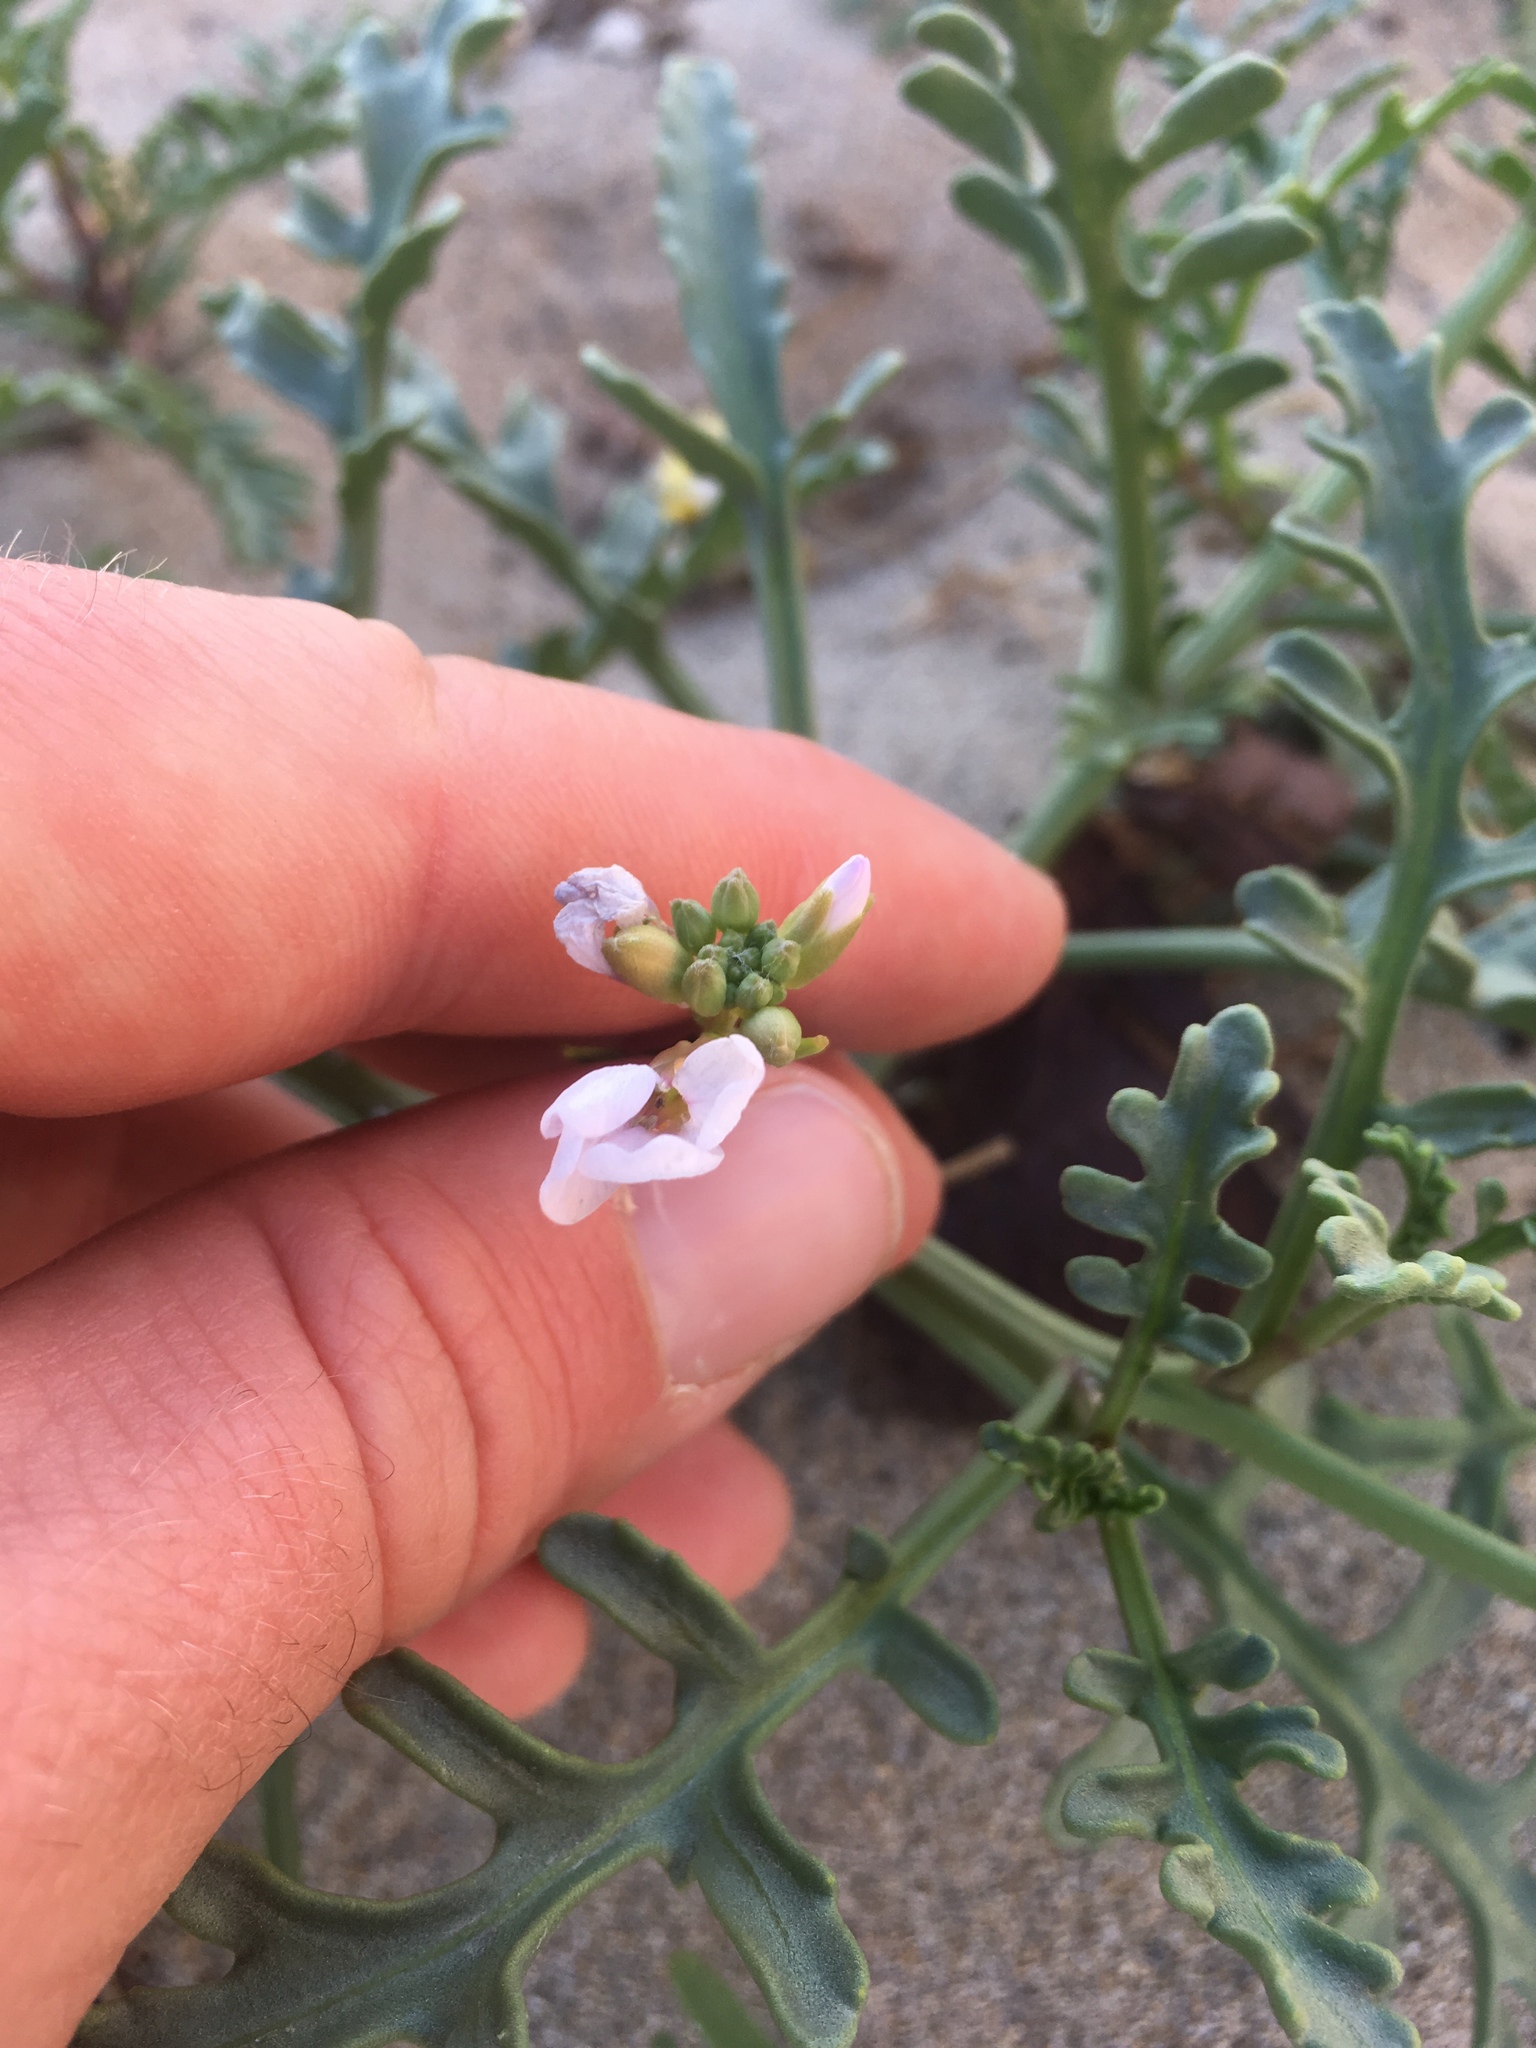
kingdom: Plantae
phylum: Tracheophyta
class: Magnoliopsida
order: Brassicales
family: Brassicaceae
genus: Cakile
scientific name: Cakile maritima
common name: Sea rocket
